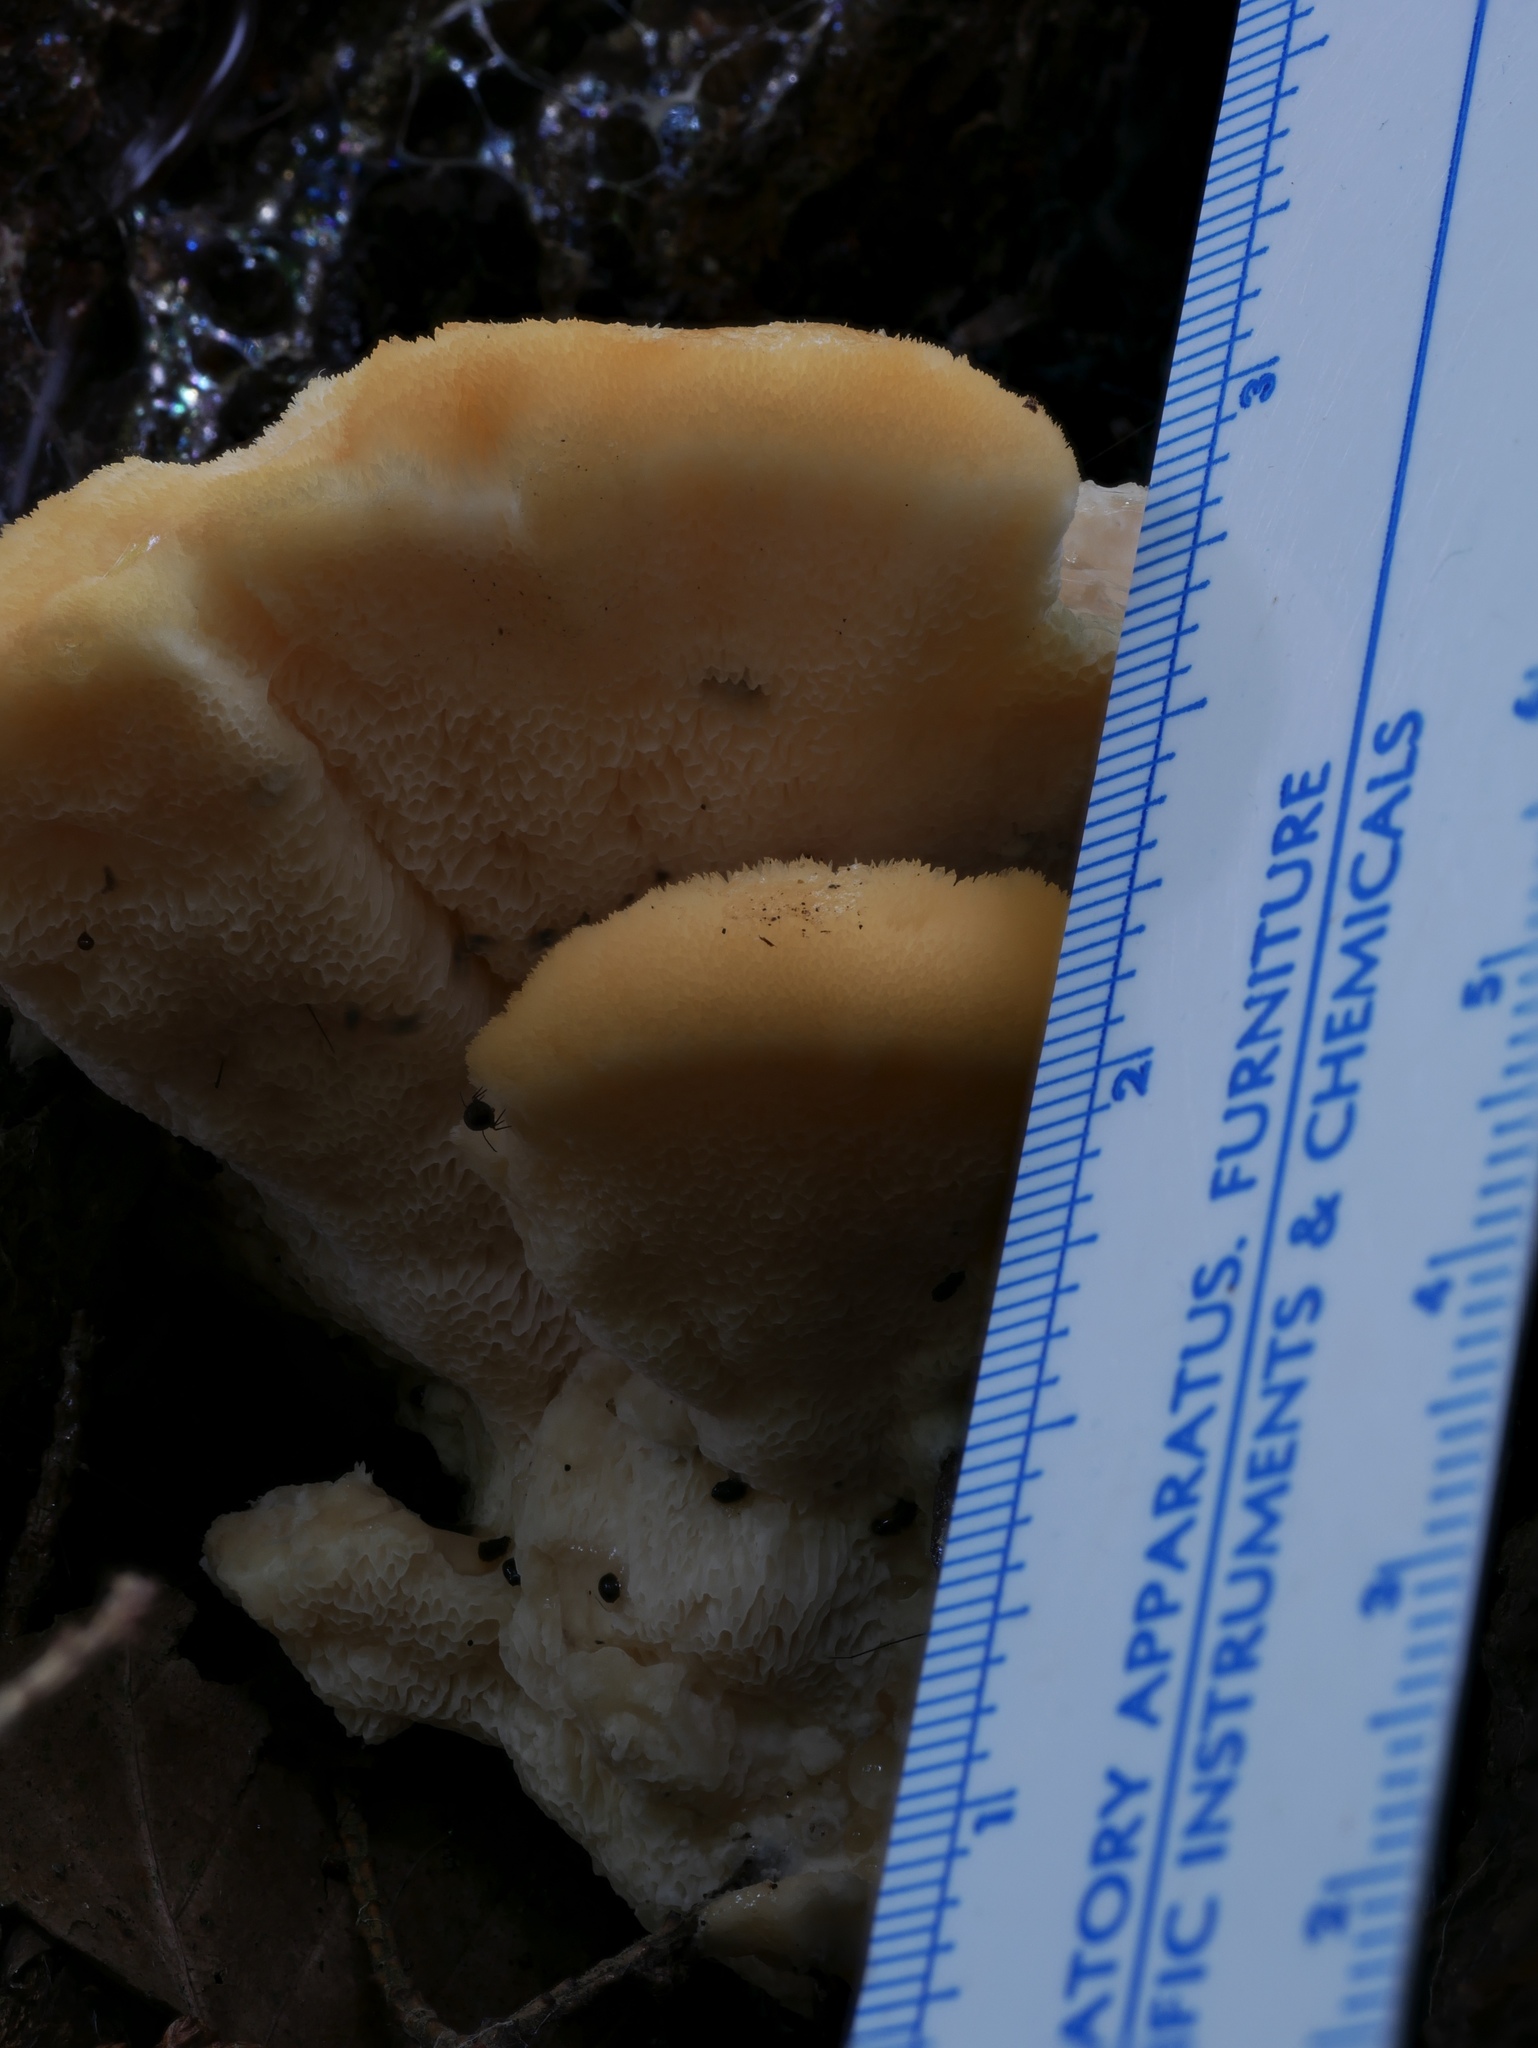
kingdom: Fungi
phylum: Basidiomycota
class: Agaricomycetes
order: Polyporales
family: Fomitopsidaceae
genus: Climacocystis
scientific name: Climacocystis borealis
